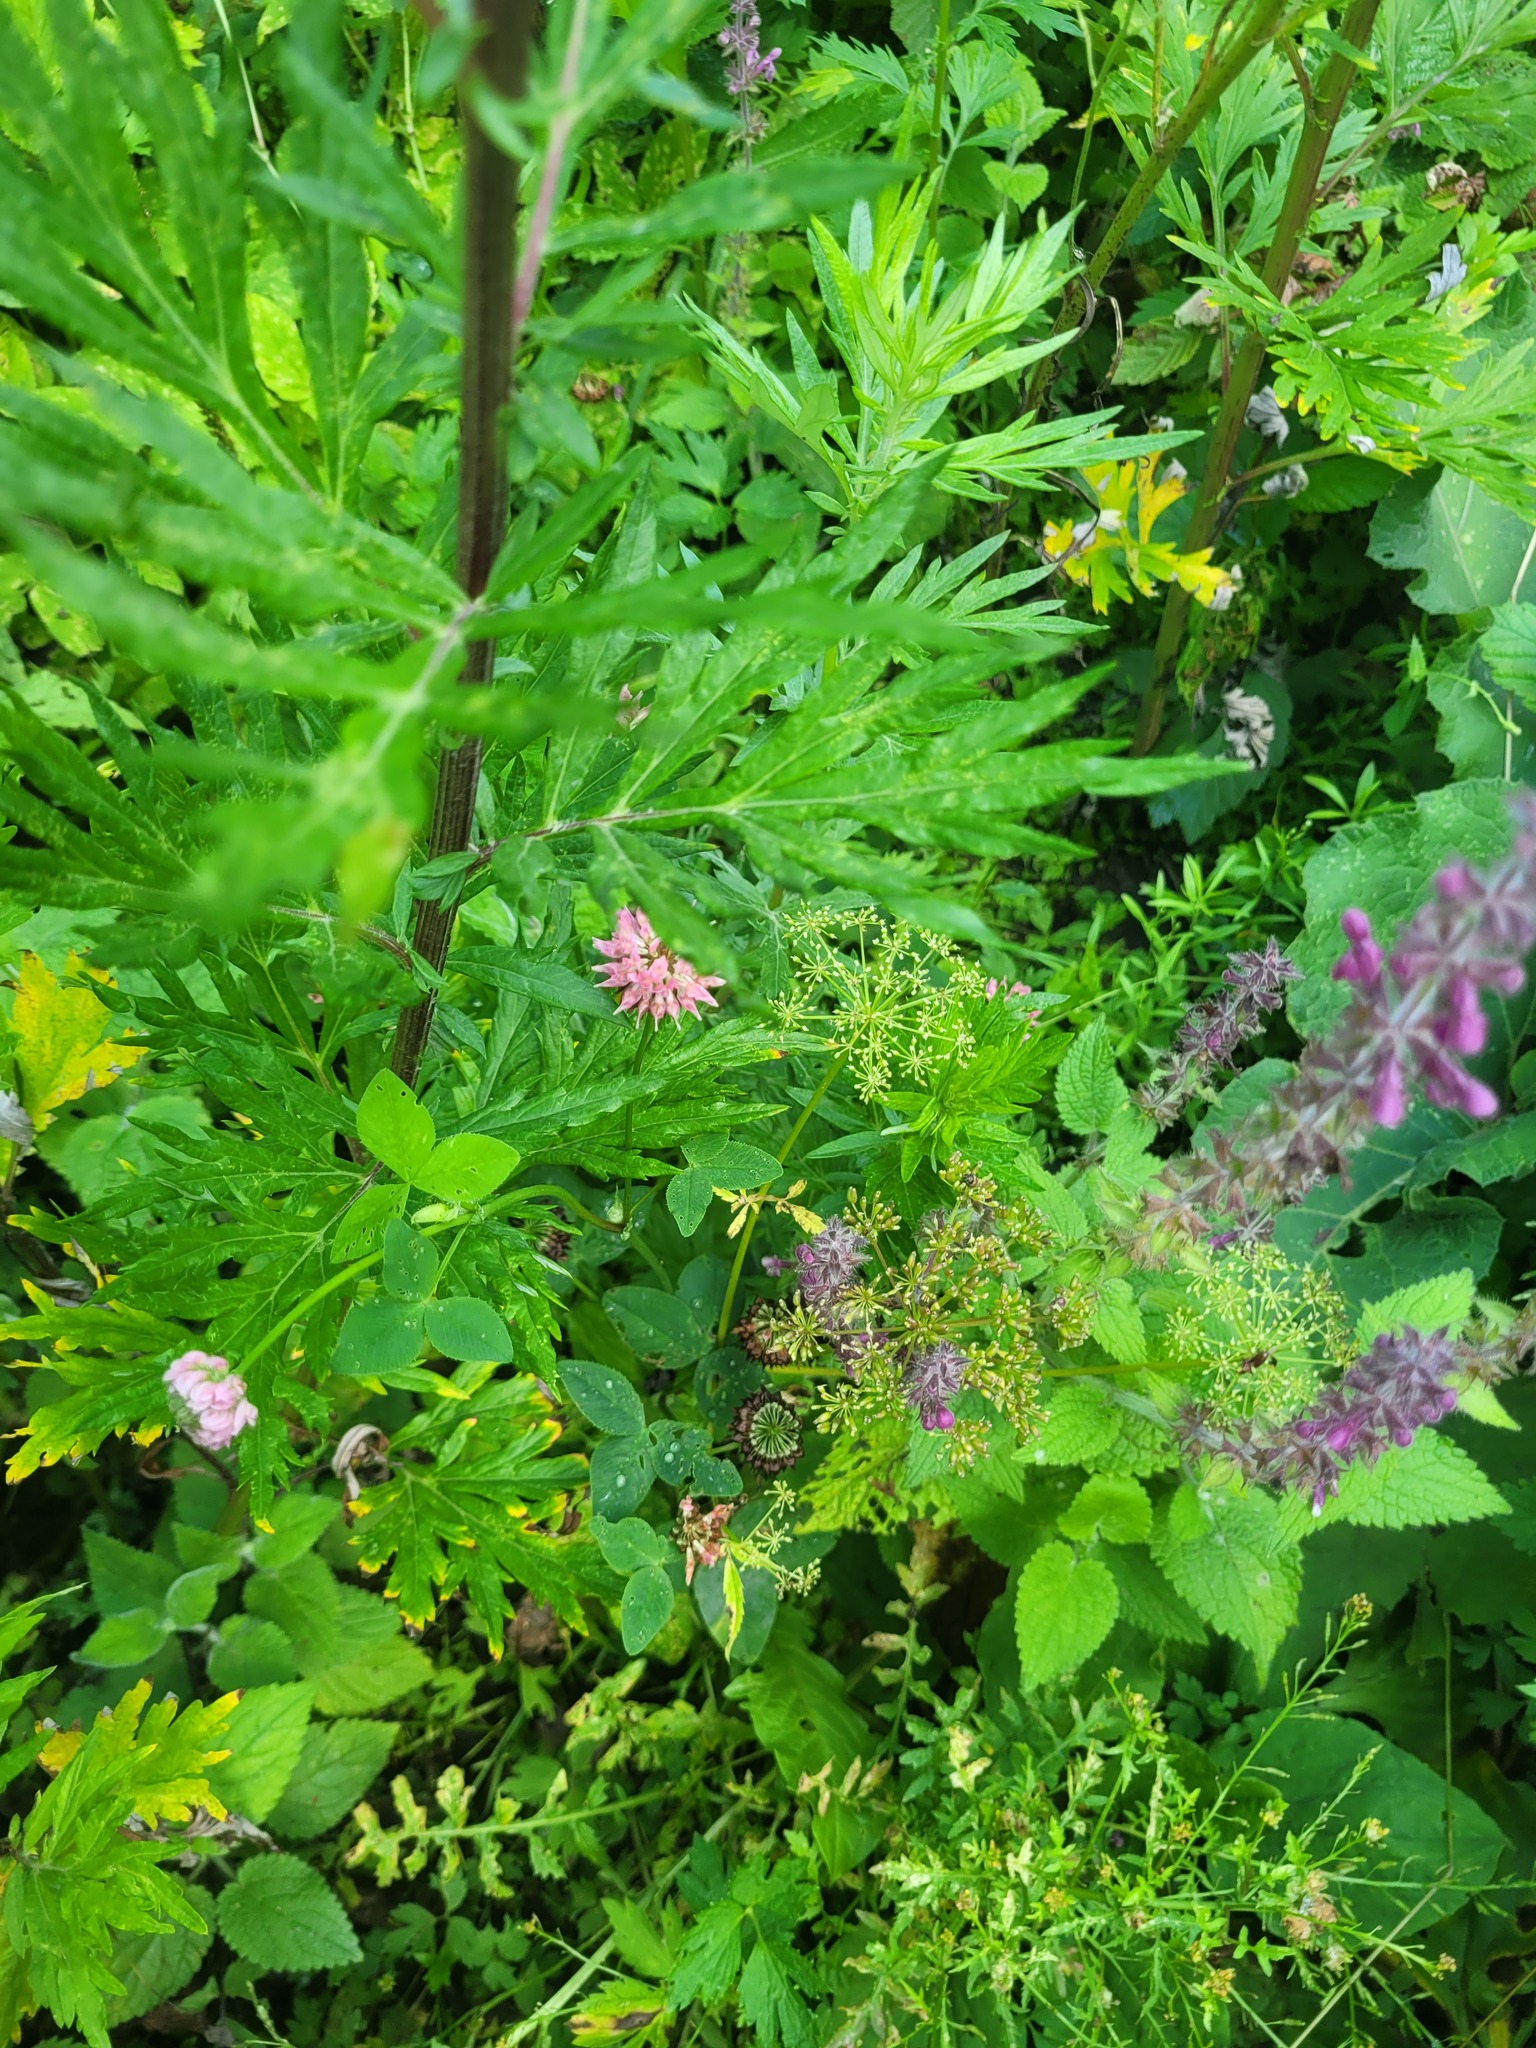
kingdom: Plantae
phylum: Tracheophyta
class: Magnoliopsida
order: Fabales
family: Fabaceae
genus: Trifolium
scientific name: Trifolium hybridum
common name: Alsike clover
